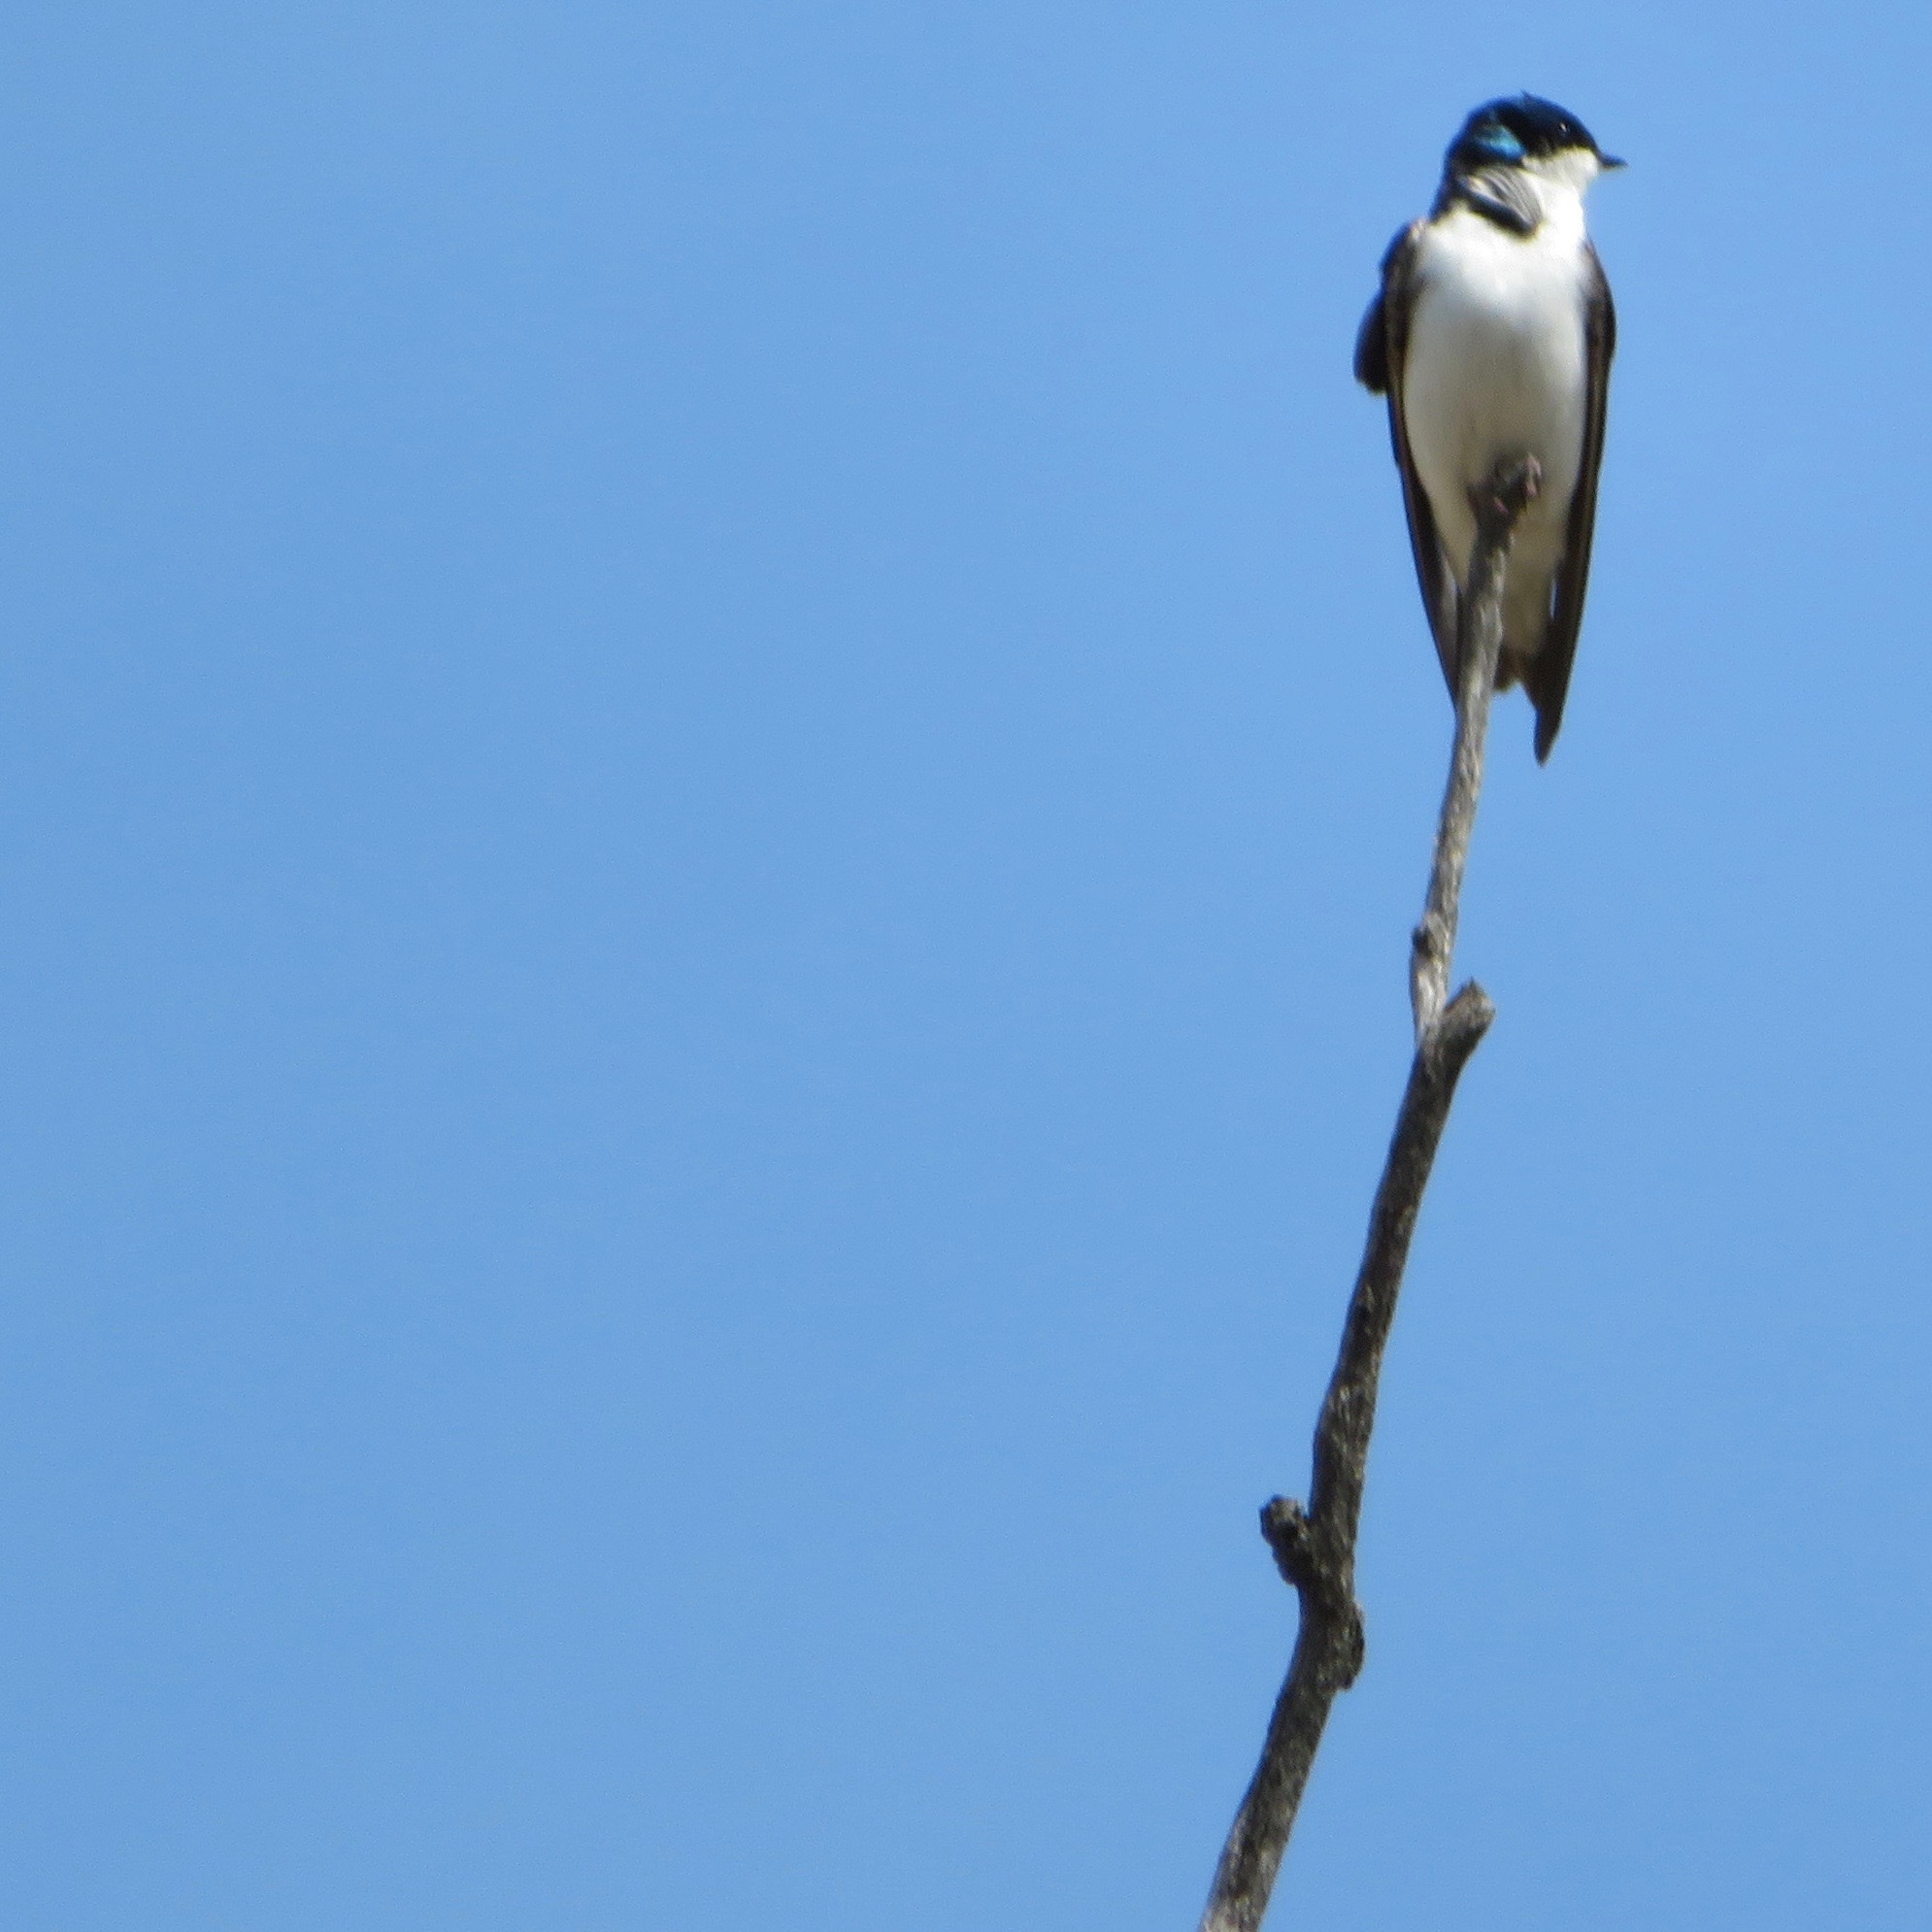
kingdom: Animalia
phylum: Chordata
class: Aves
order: Passeriformes
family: Hirundinidae
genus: Tachycineta
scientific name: Tachycineta bicolor
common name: Tree swallow
